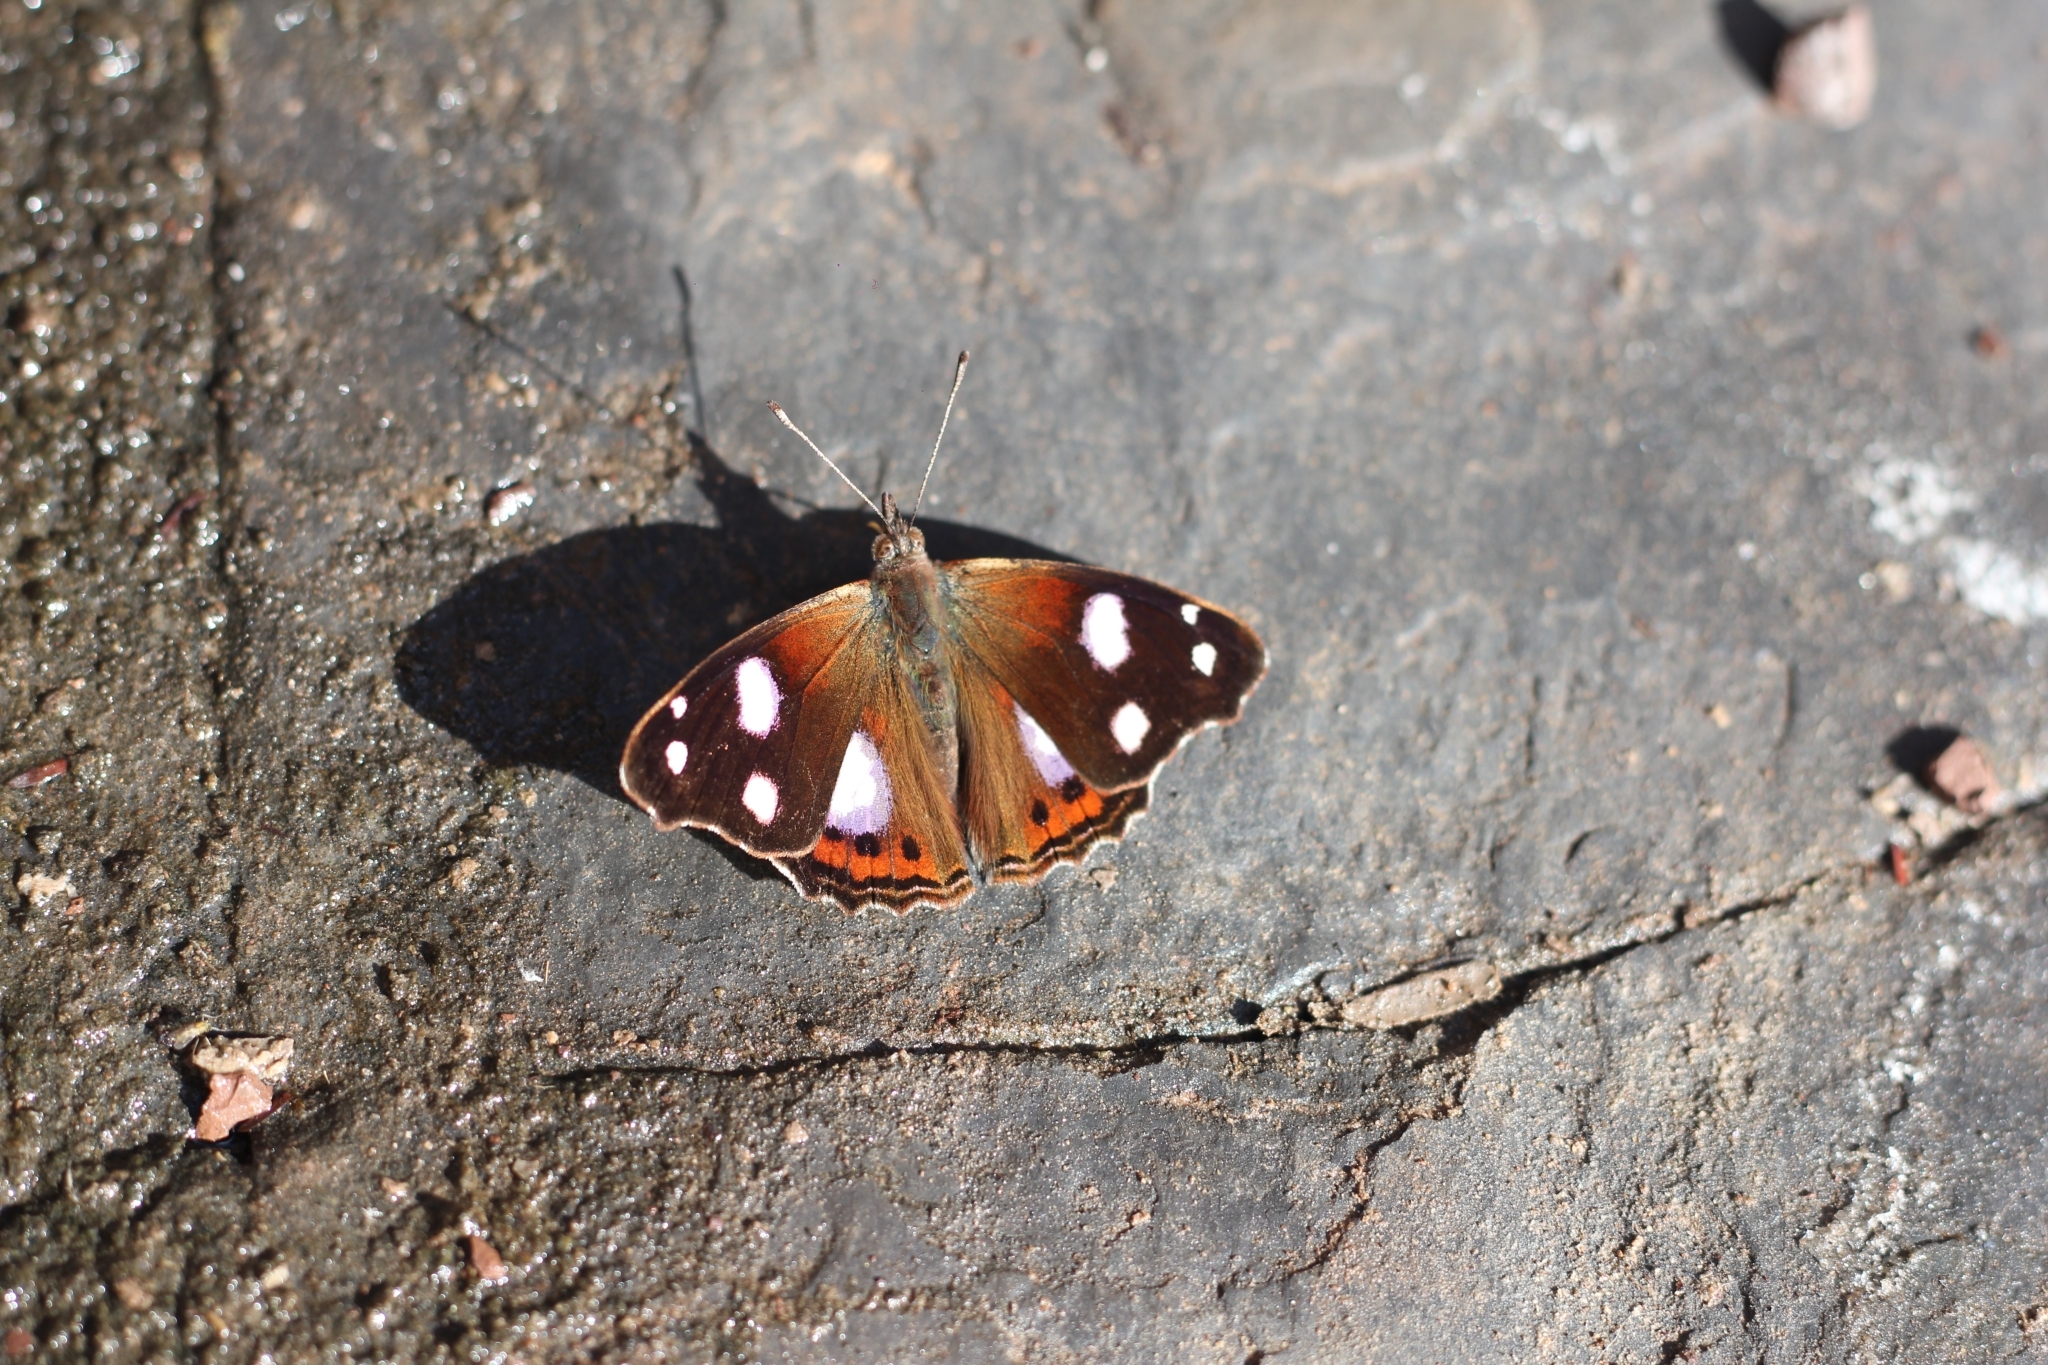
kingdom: Animalia
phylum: Arthropoda
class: Insecta
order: Lepidoptera
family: Nymphalidae
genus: Cybdelis
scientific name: Cybdelis
